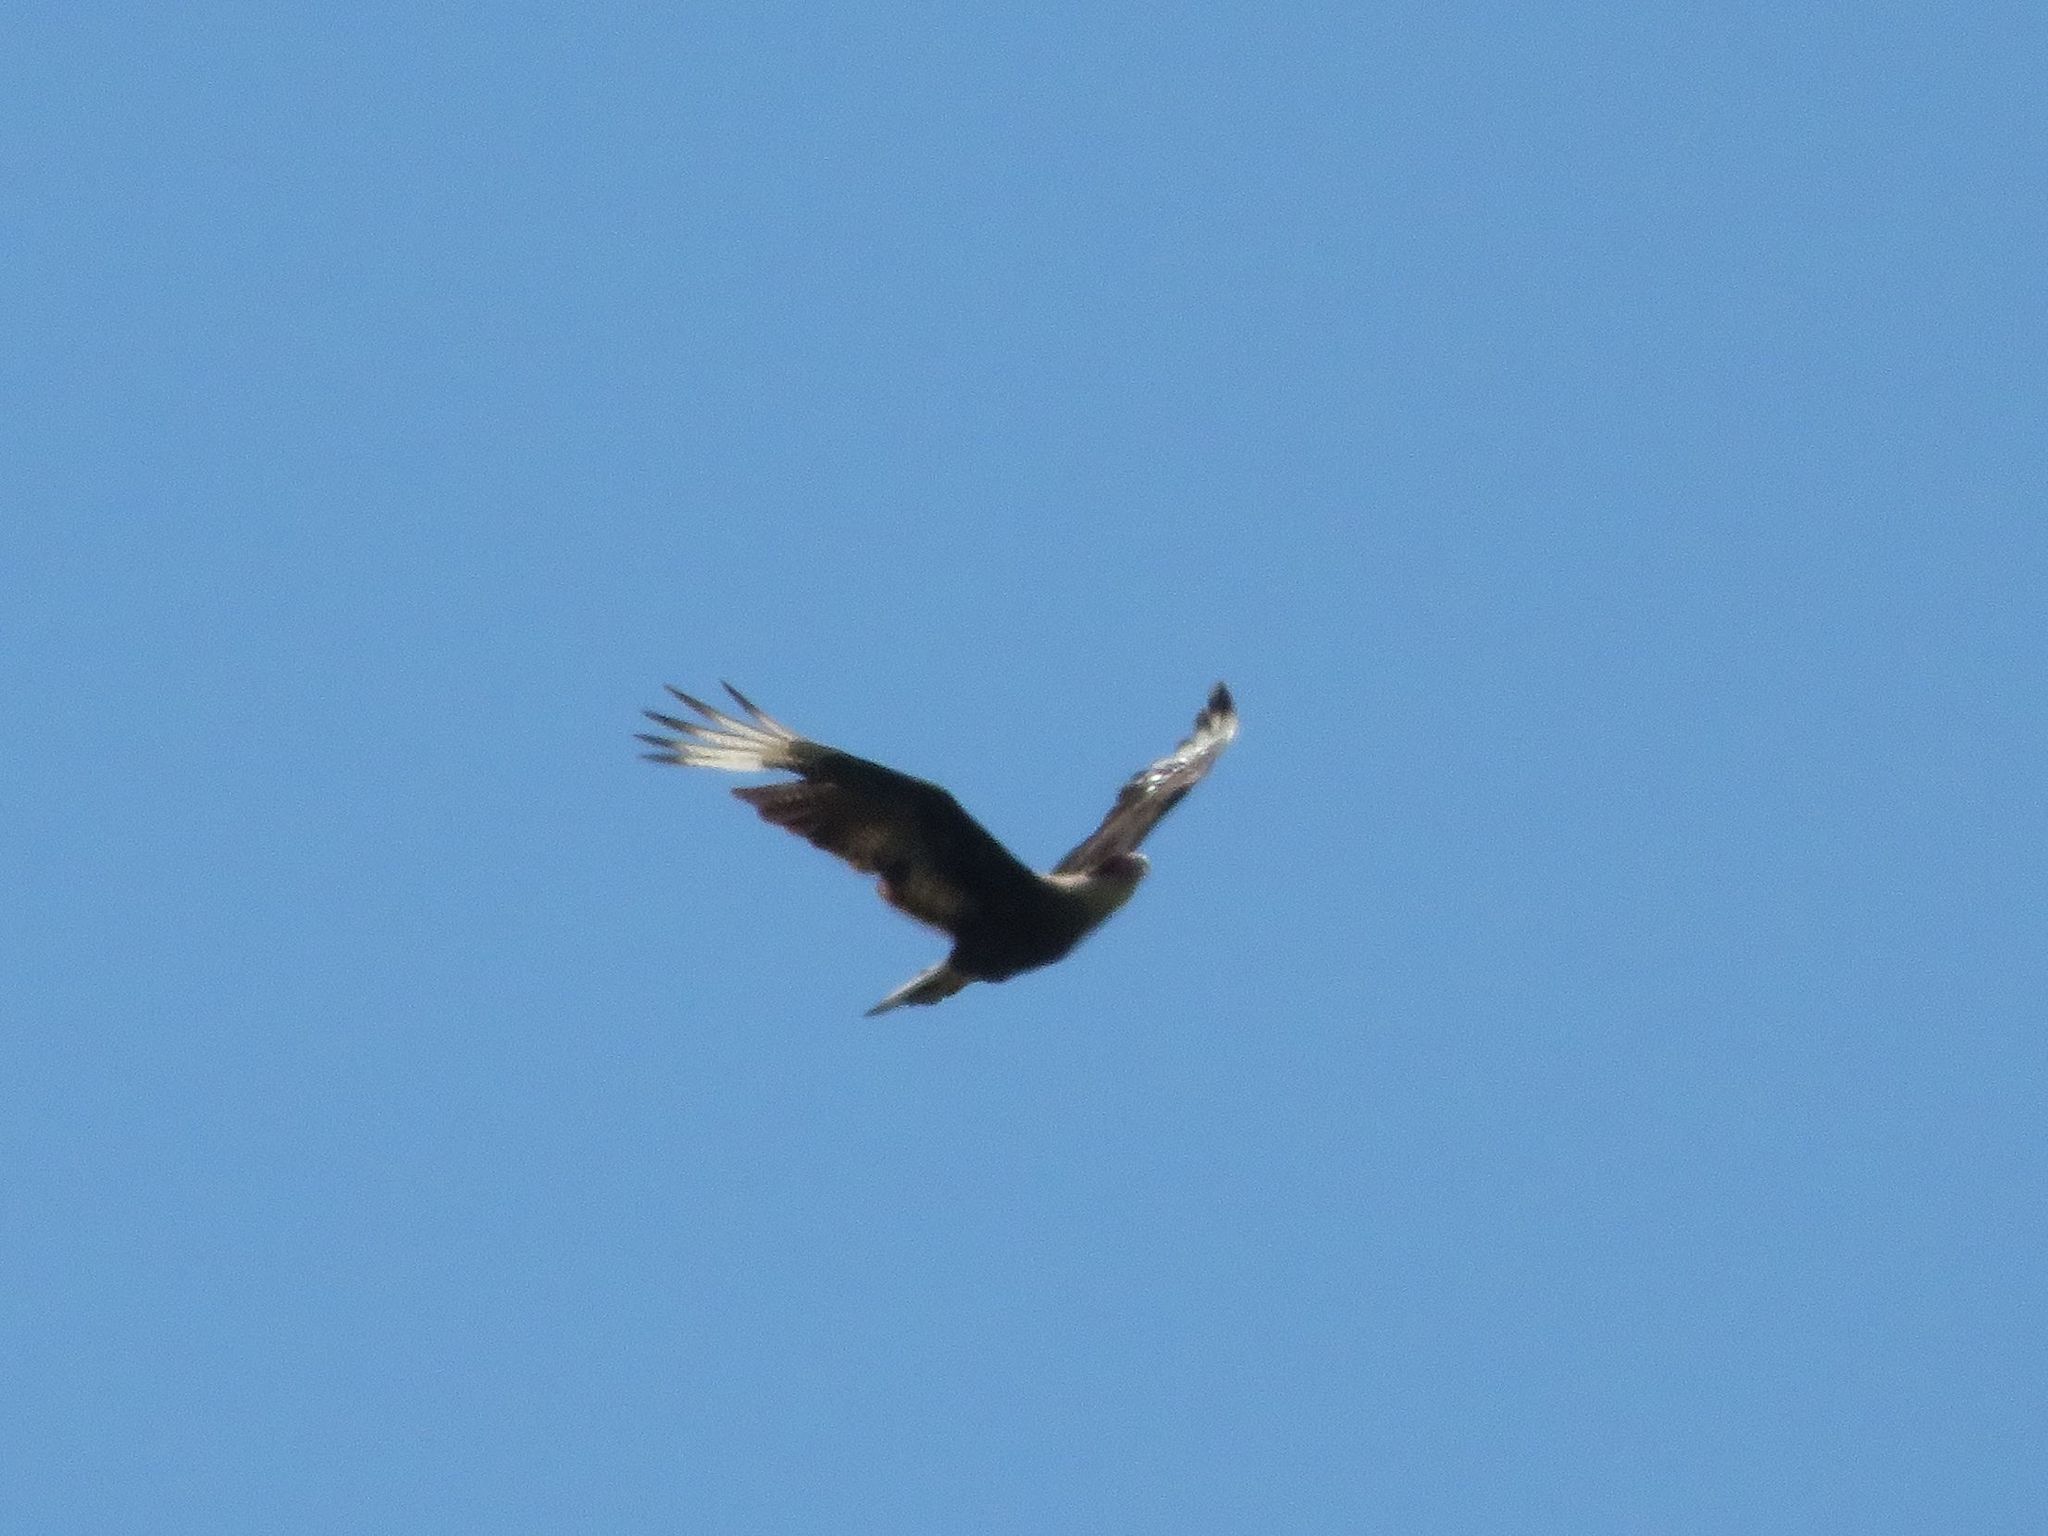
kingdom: Animalia
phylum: Chordata
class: Aves
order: Falconiformes
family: Falconidae
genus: Caracara
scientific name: Caracara plancus
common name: Southern caracara
